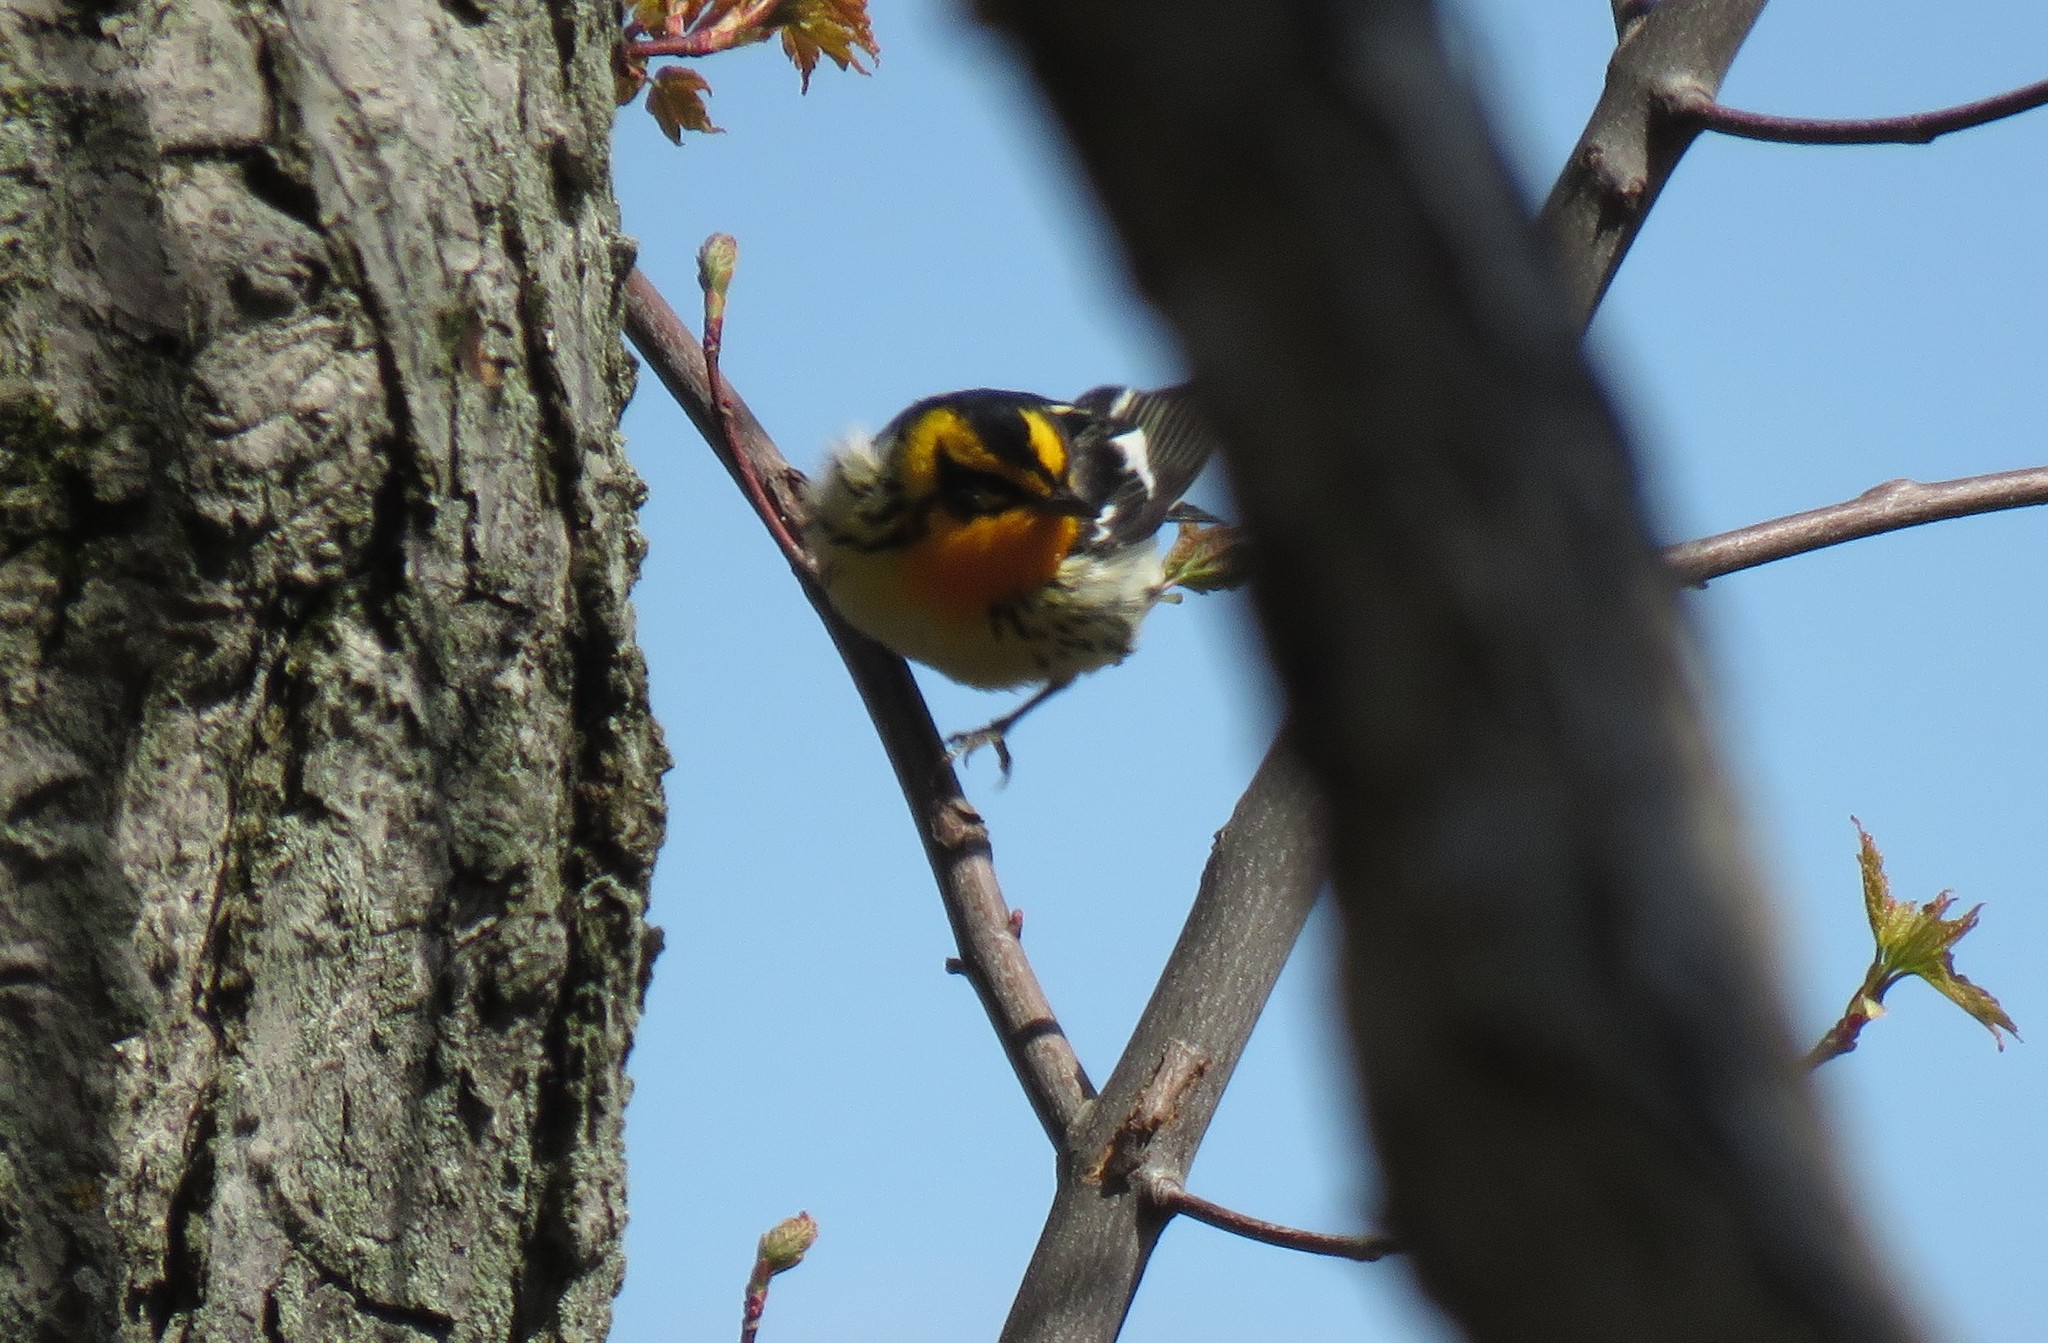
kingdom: Animalia
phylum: Chordata
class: Aves
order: Passeriformes
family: Parulidae
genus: Setophaga
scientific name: Setophaga fusca
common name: Blackburnian warbler
